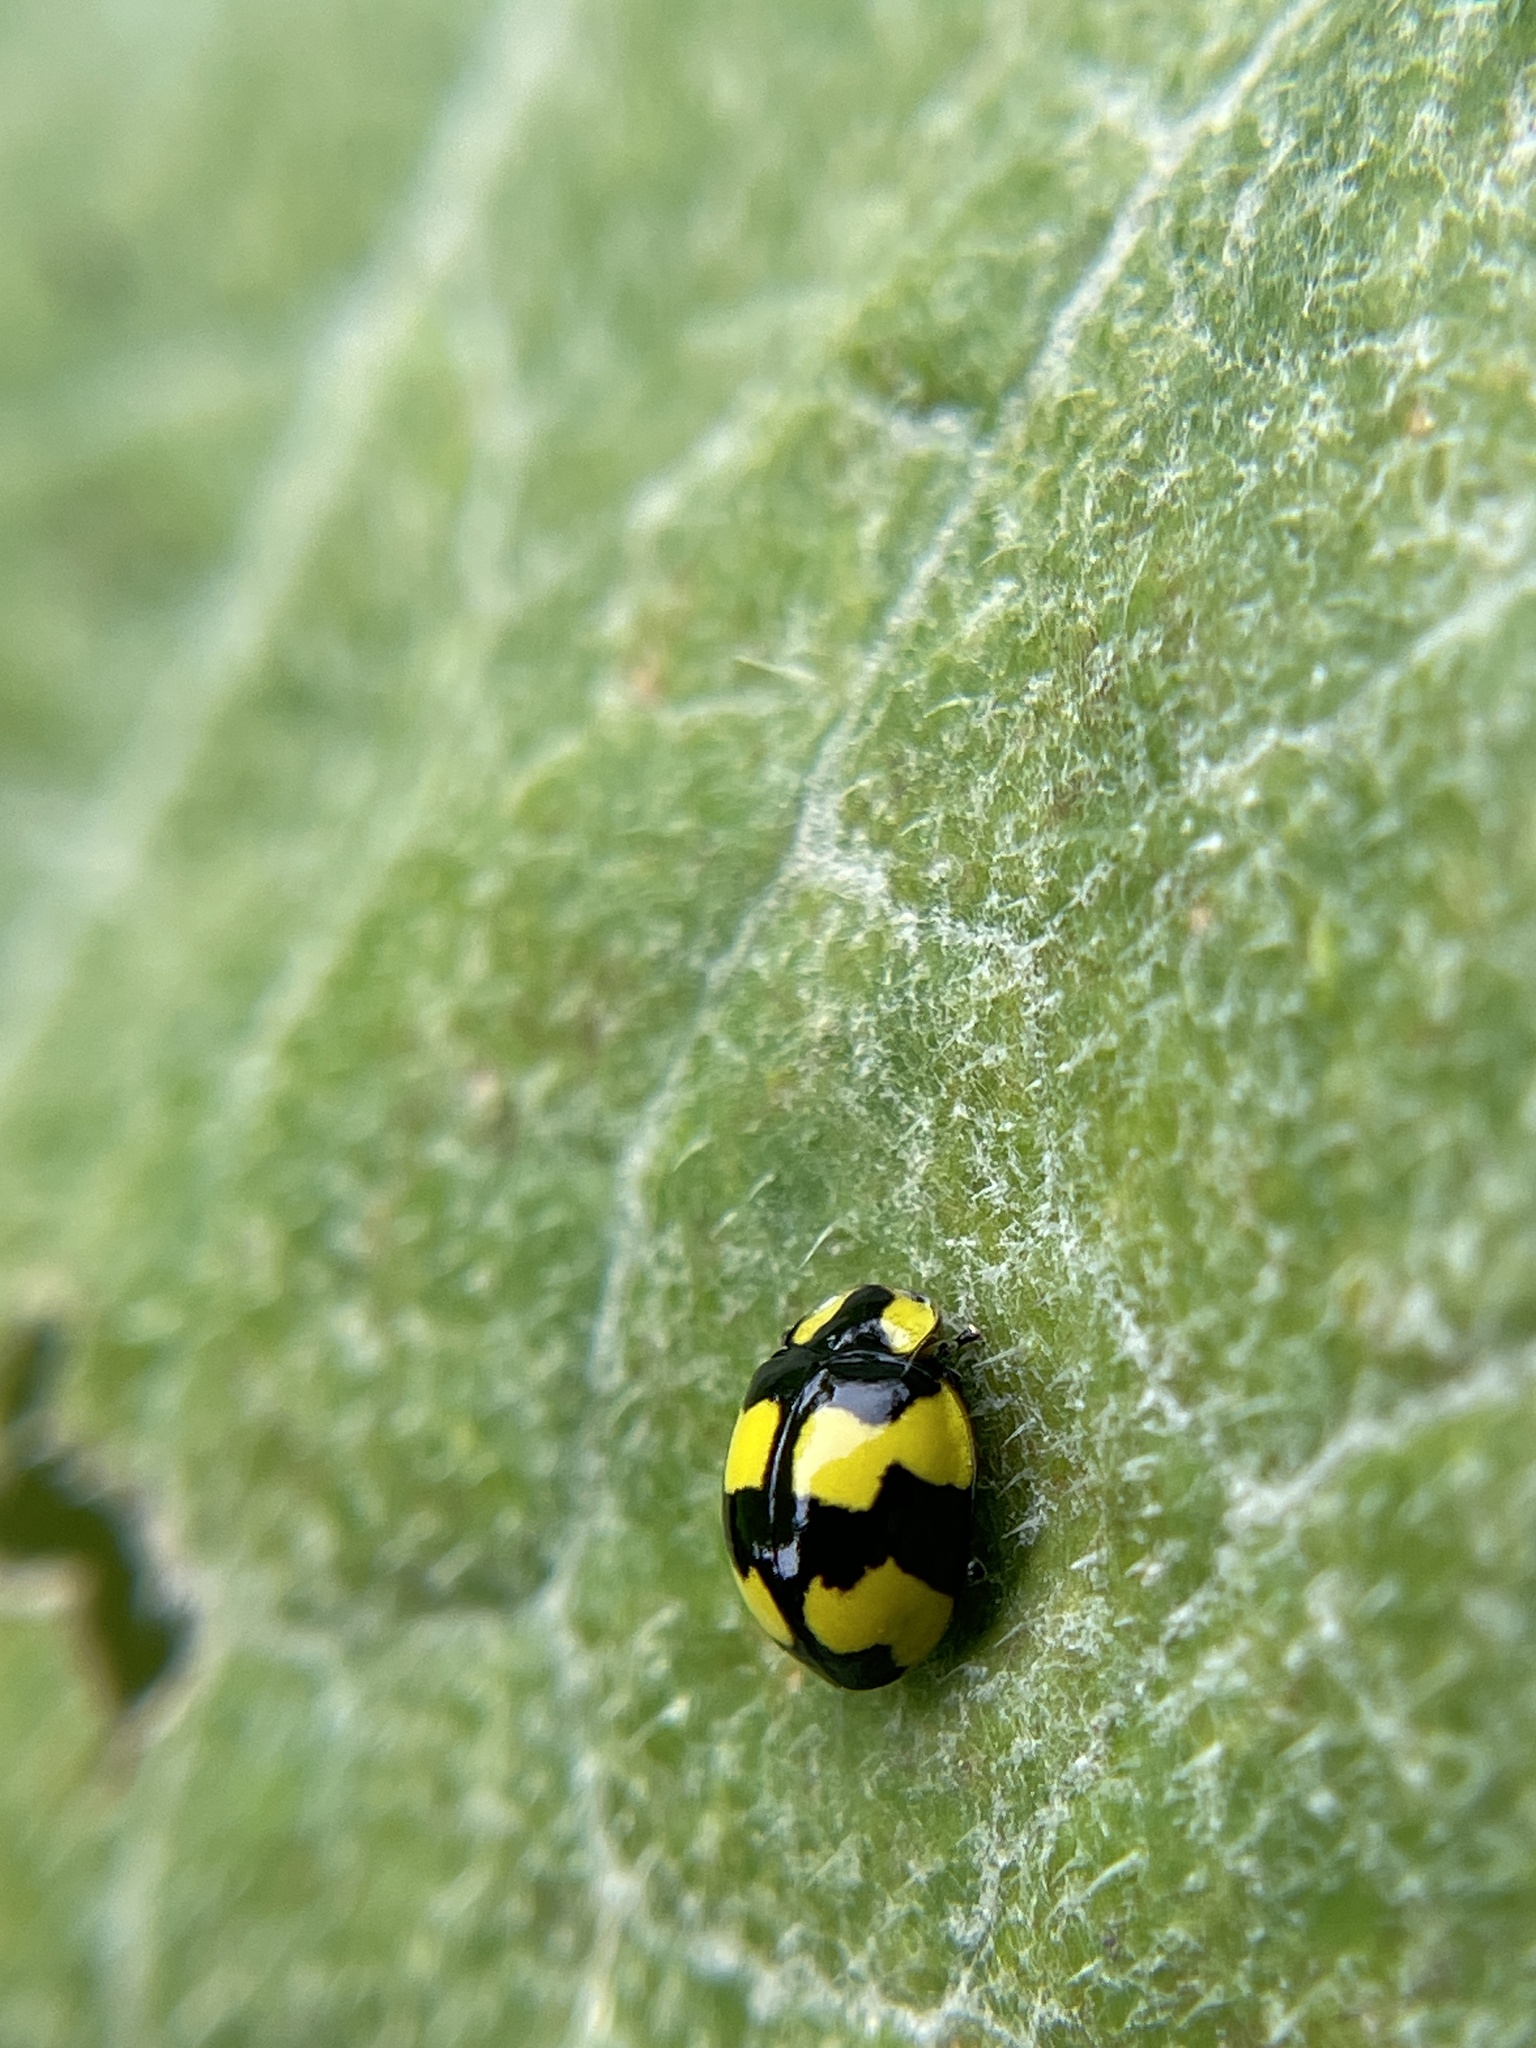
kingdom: Animalia
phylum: Arthropoda
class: Insecta
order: Coleoptera
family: Coccinellidae
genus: Illeis
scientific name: Illeis galbula
